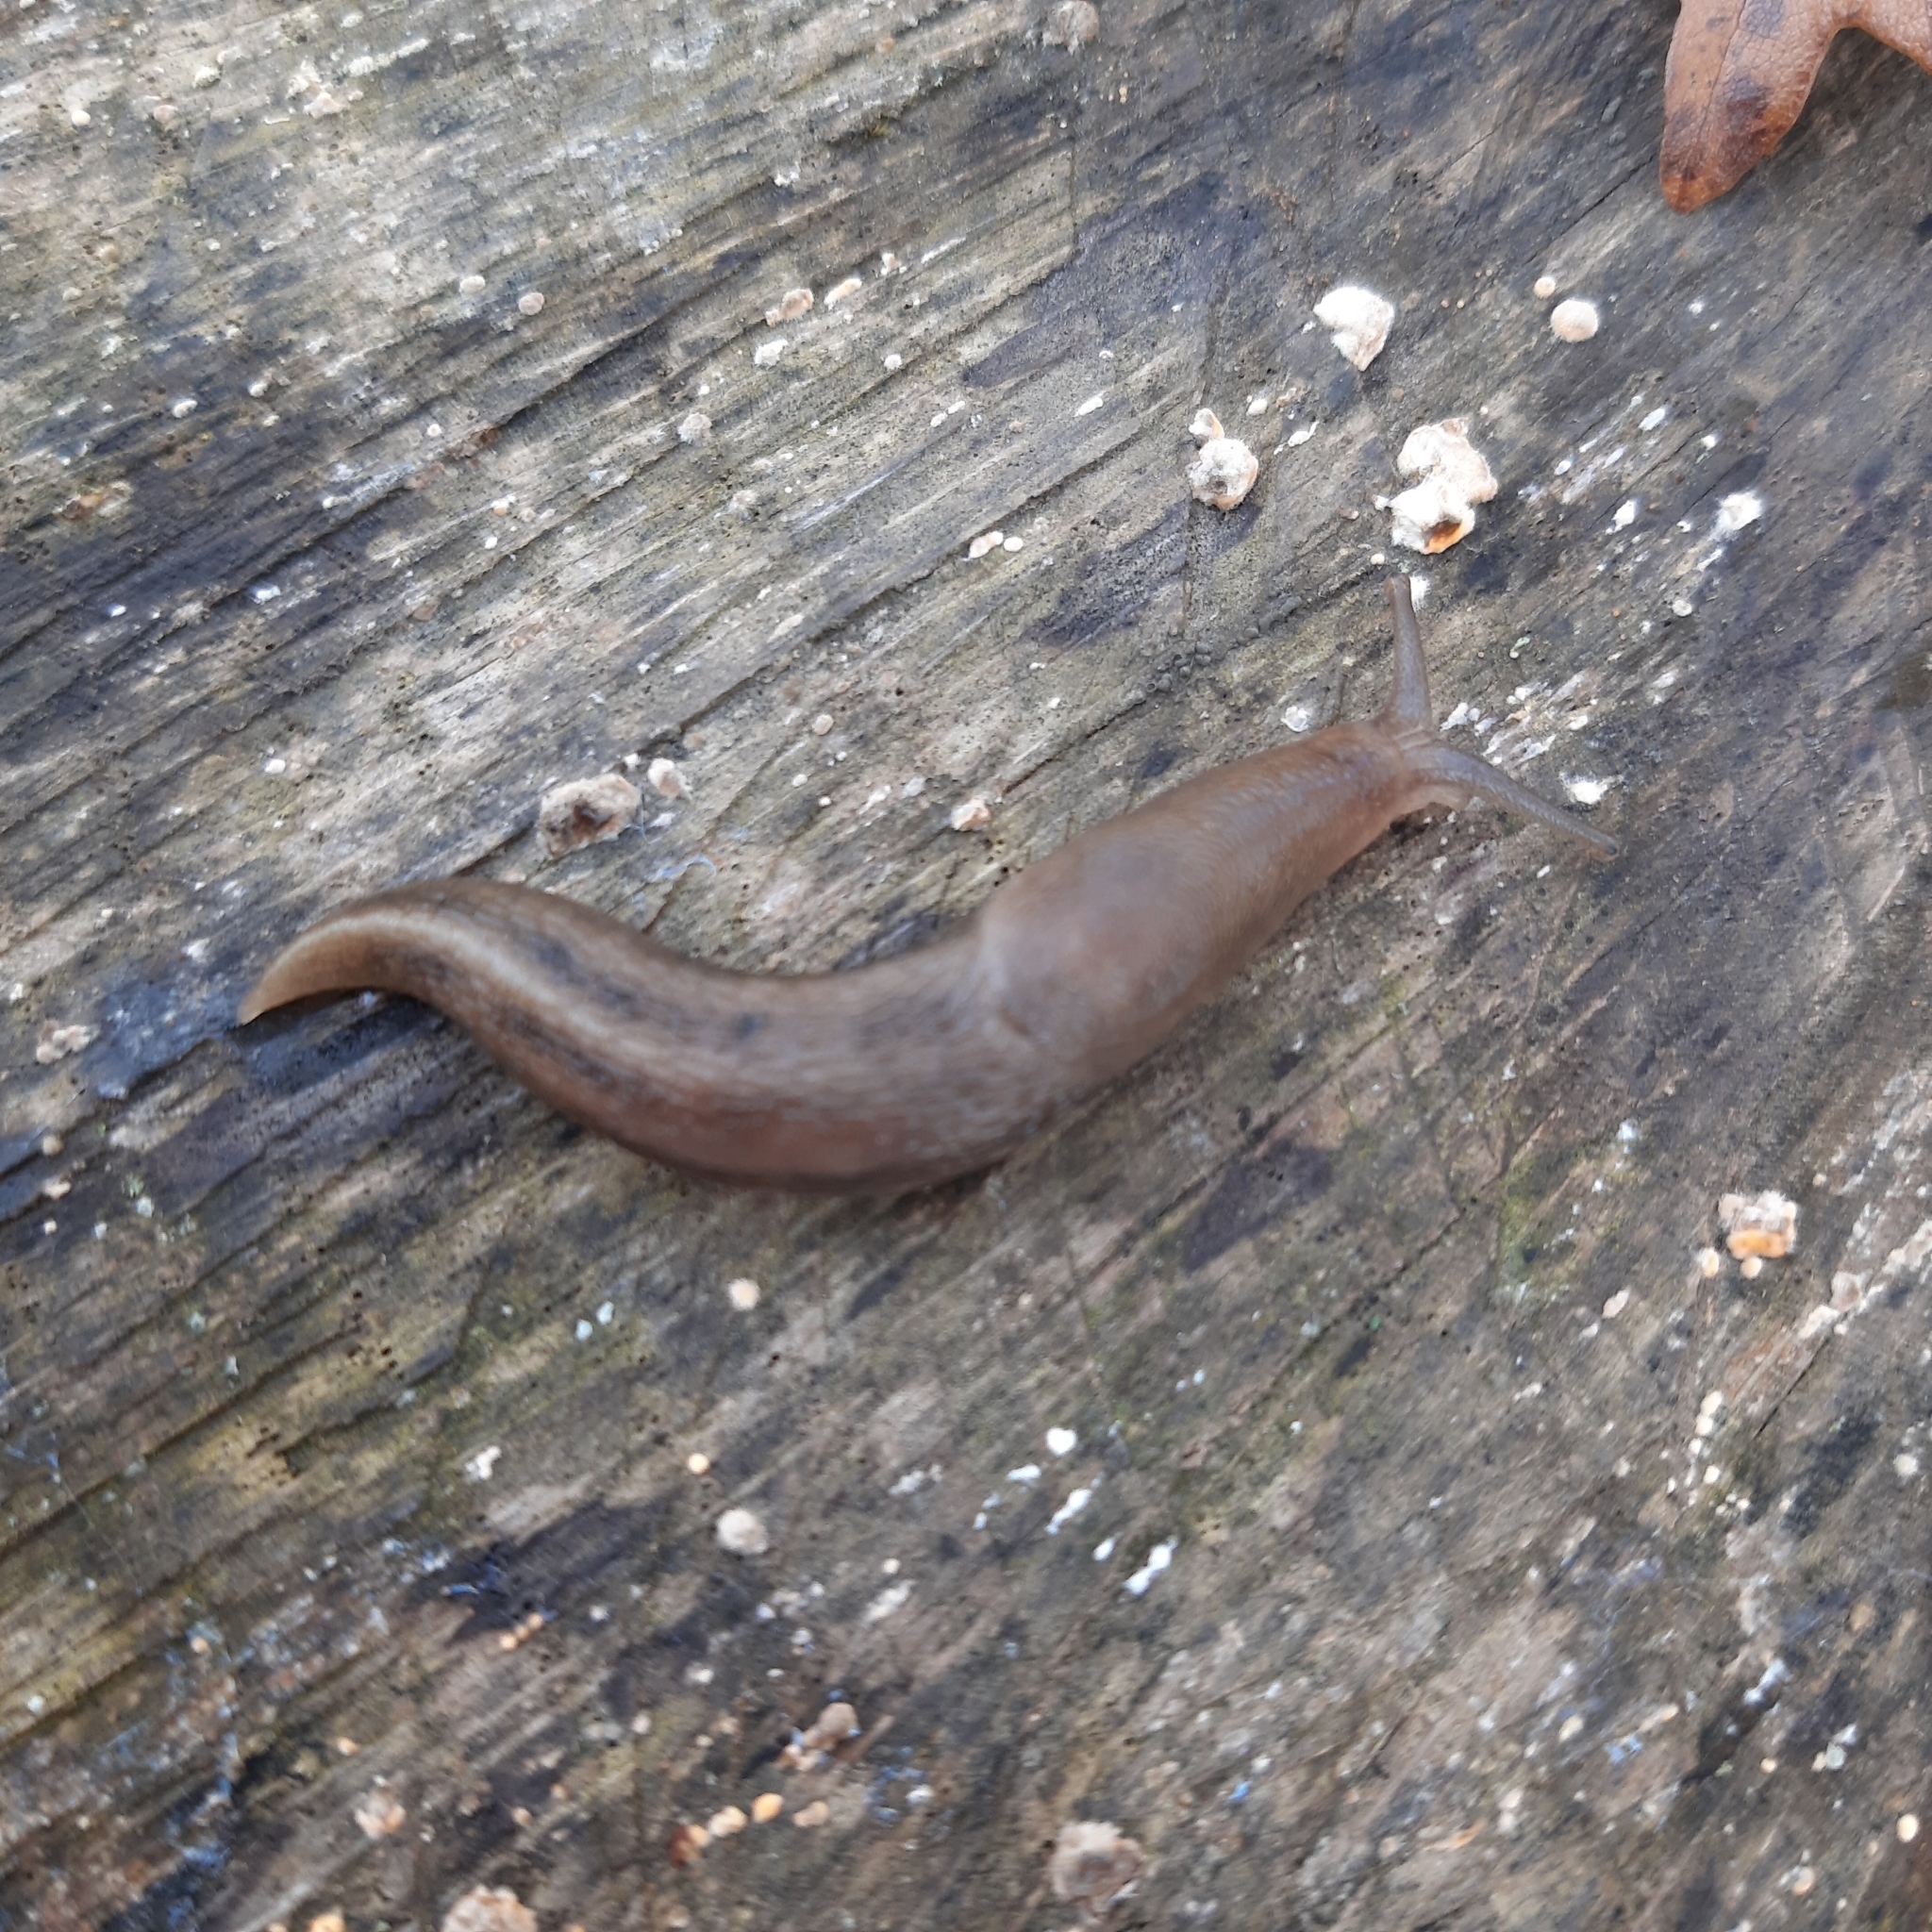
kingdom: Animalia
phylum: Mollusca
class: Gastropoda
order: Stylommatophora
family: Limacidae
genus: Limax
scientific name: Limax cinereoniger
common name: Ash-black slug
